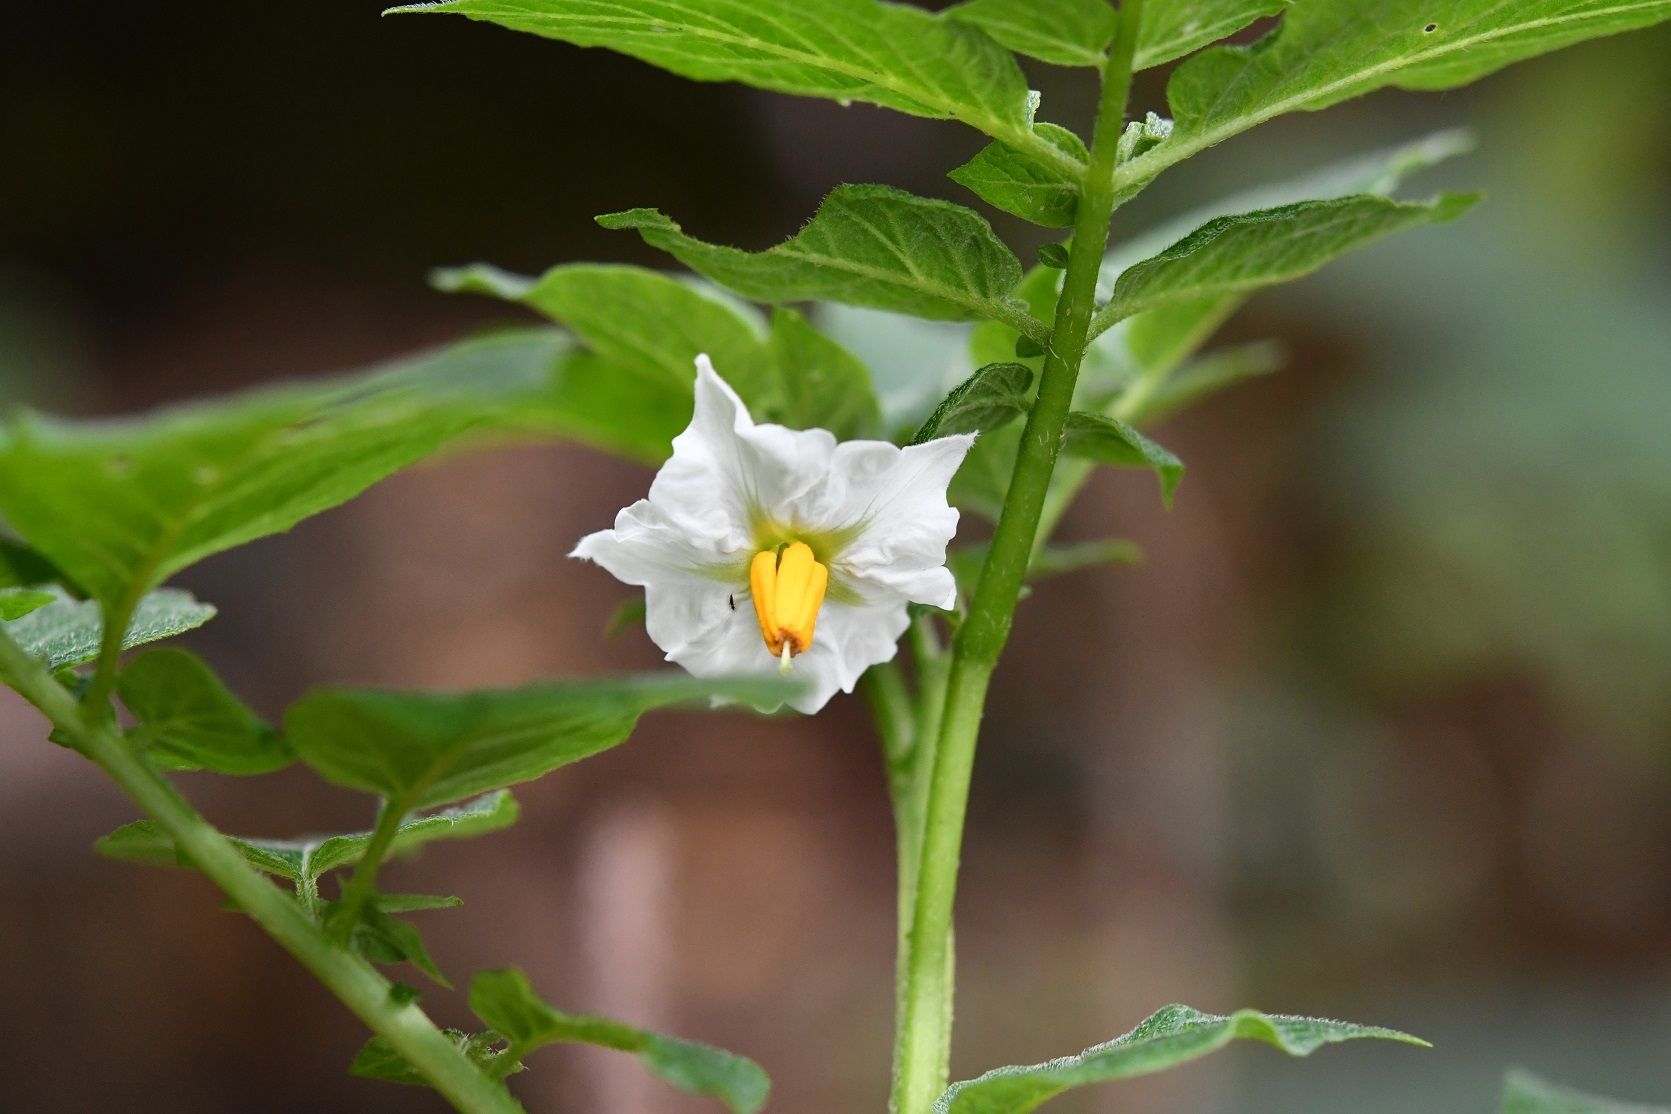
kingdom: Plantae
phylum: Tracheophyta
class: Magnoliopsida
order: Solanales
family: Solanaceae
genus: Solanum
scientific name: Solanum tuberosum
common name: Potato
